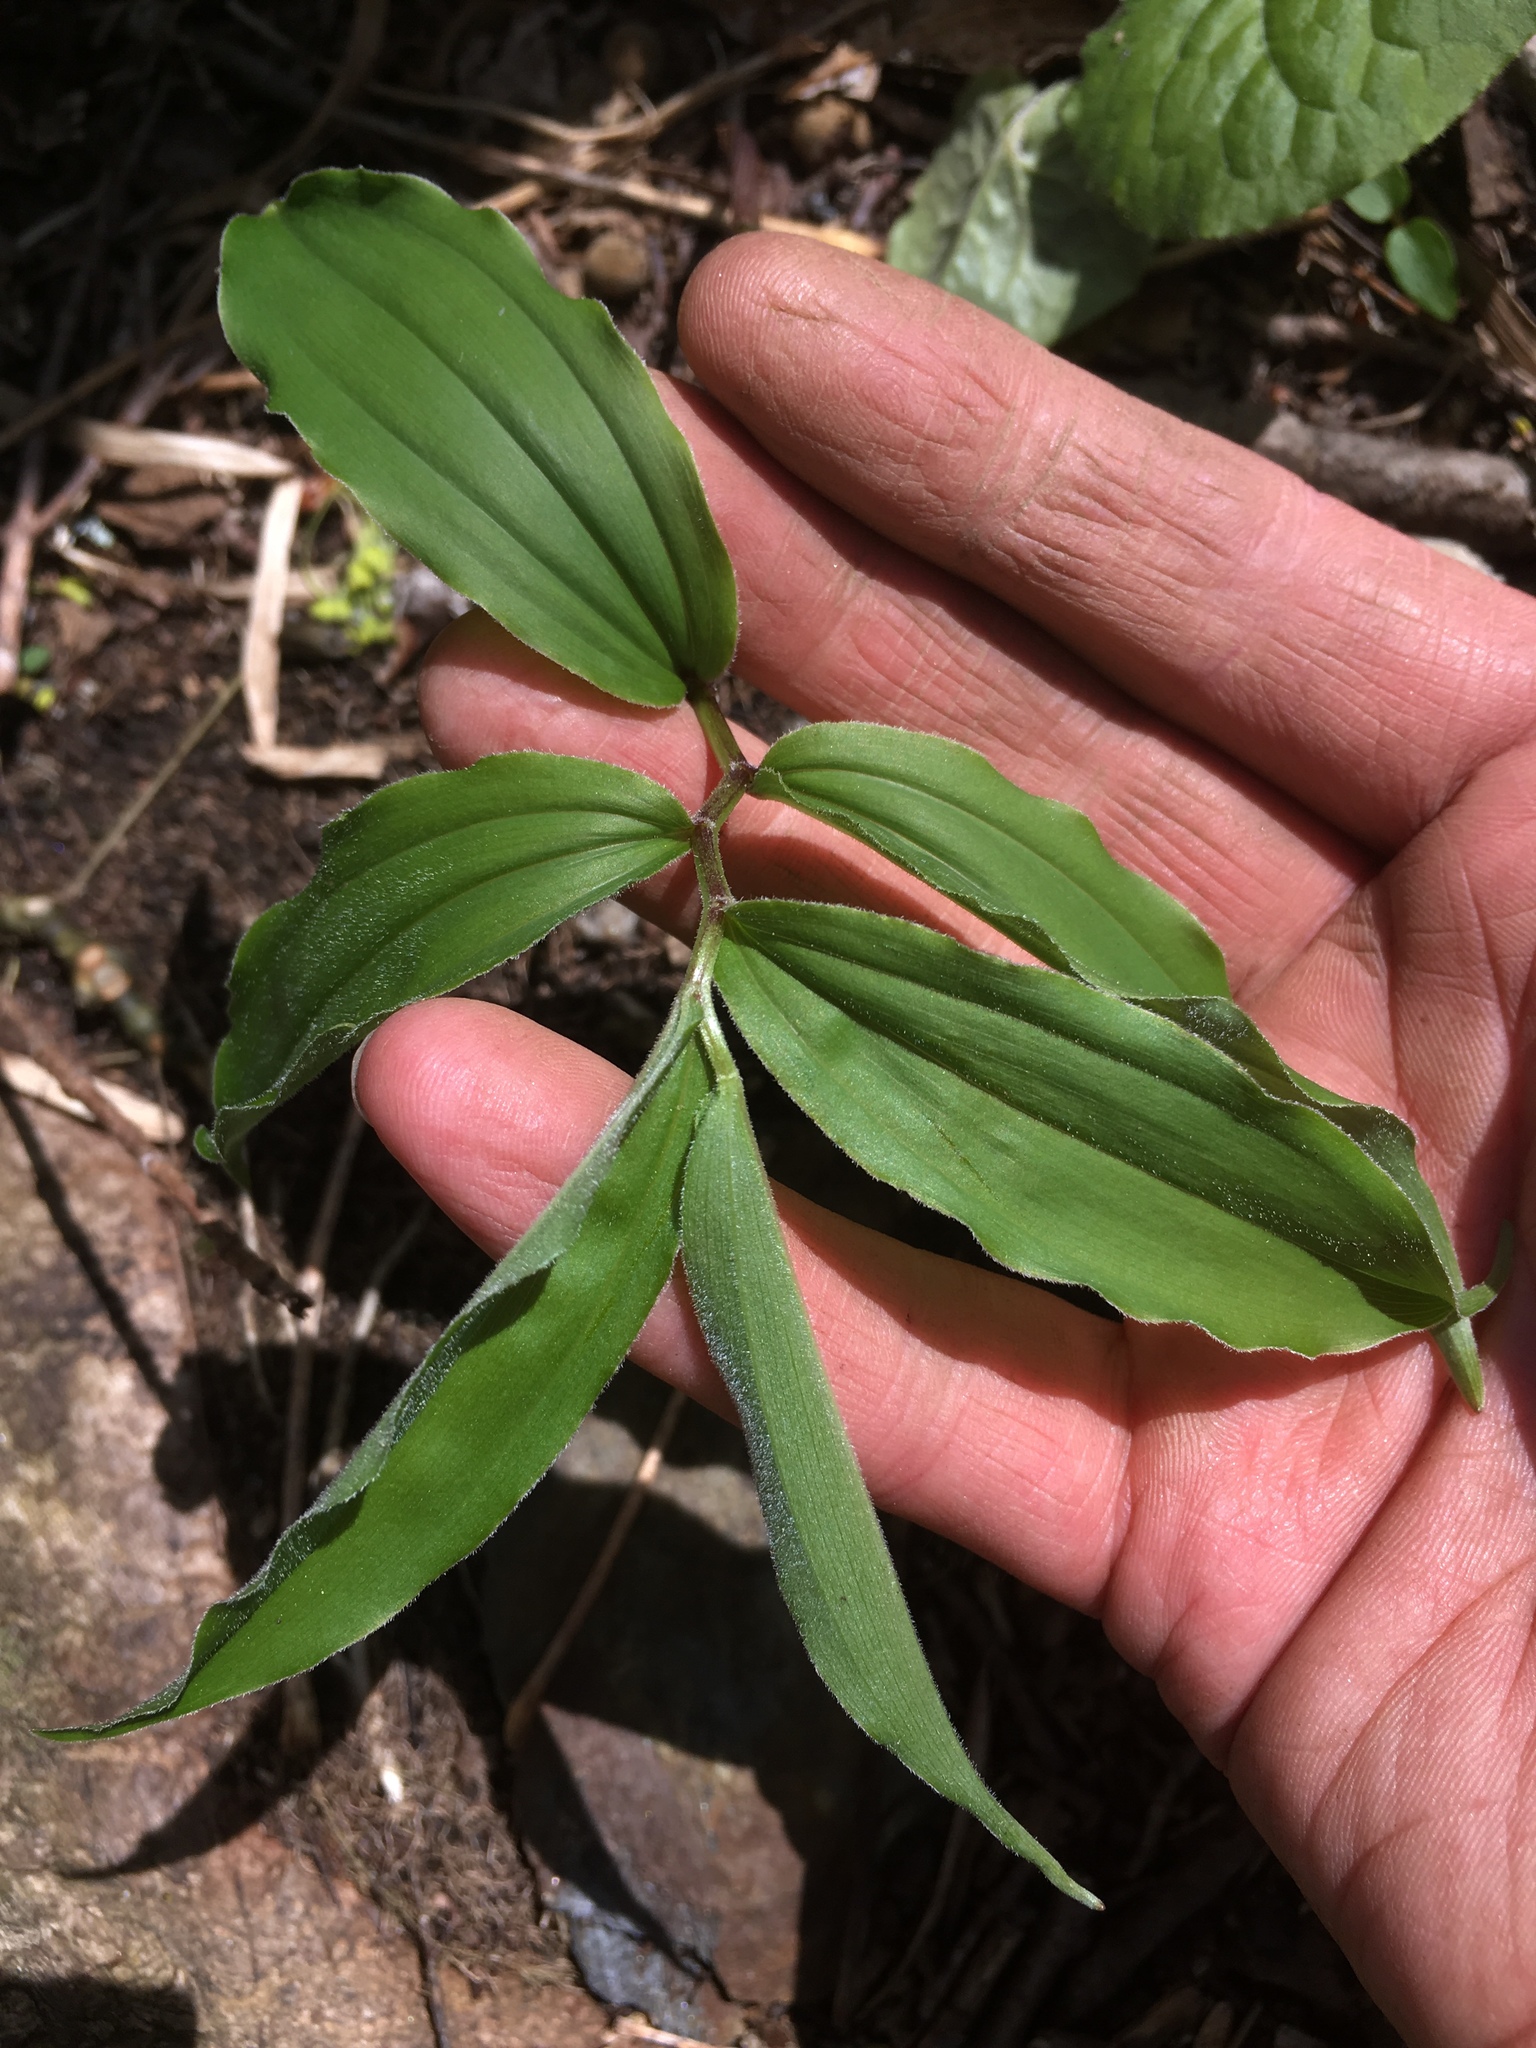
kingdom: Plantae
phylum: Tracheophyta
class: Liliopsida
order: Asparagales
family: Asparagaceae
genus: Maianthemum
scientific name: Maianthemum racemosum
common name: False spikenard
